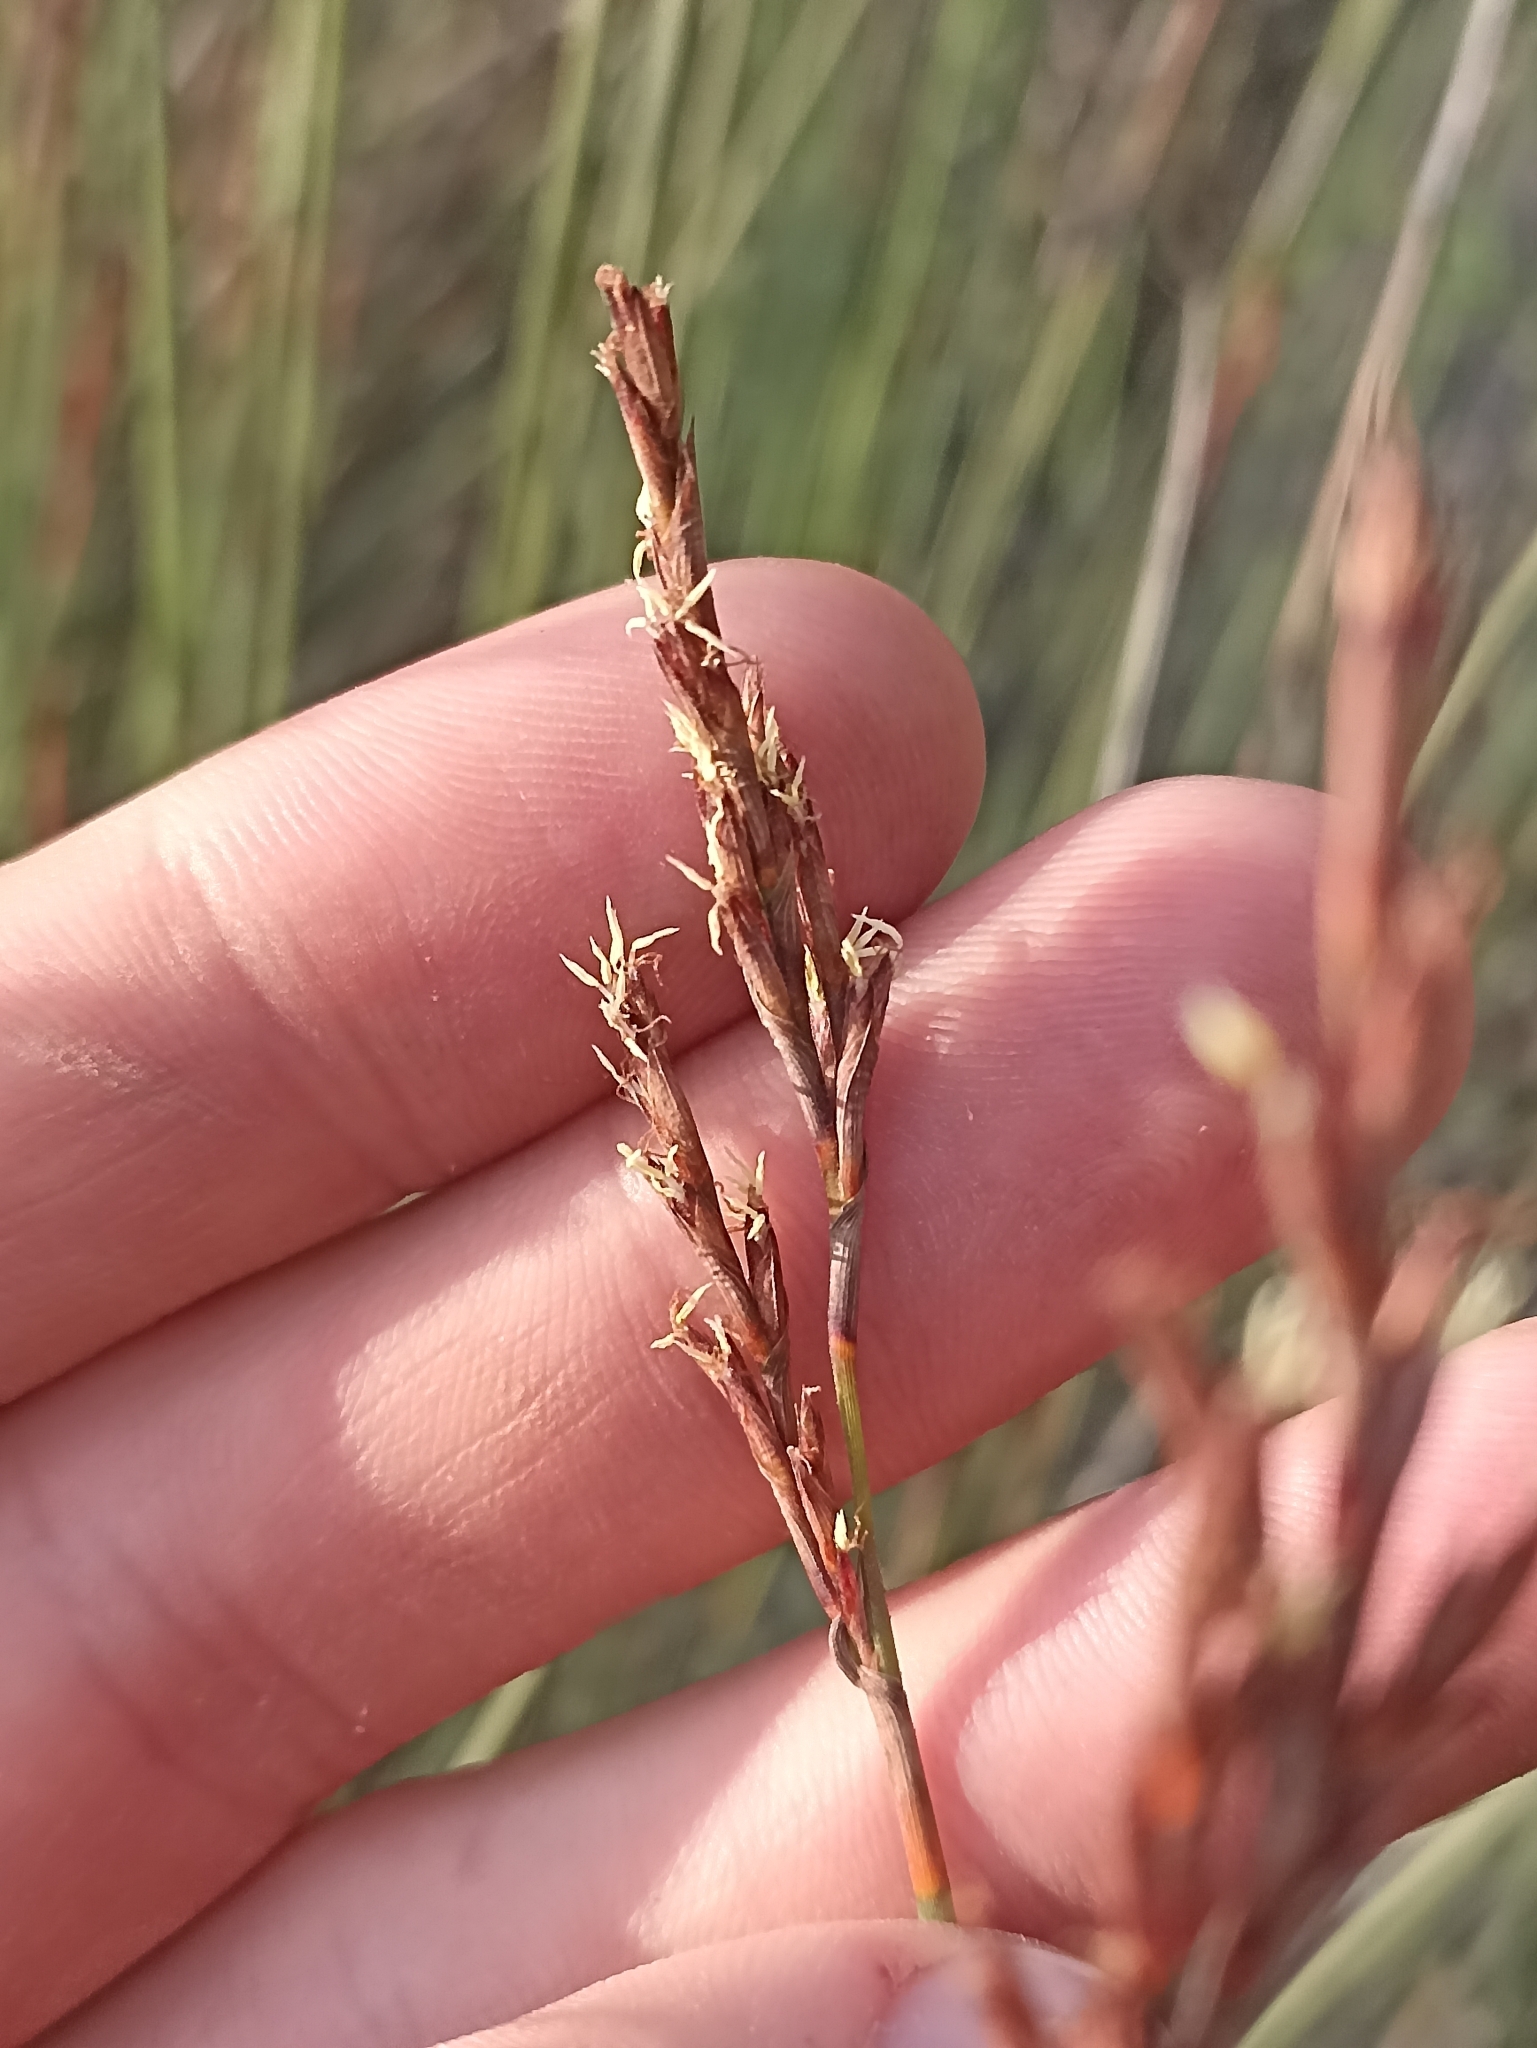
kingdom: Plantae
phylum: Tracheophyta
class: Liliopsida
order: Poales
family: Cyperaceae
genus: Machaerina
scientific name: Machaerina juncea
